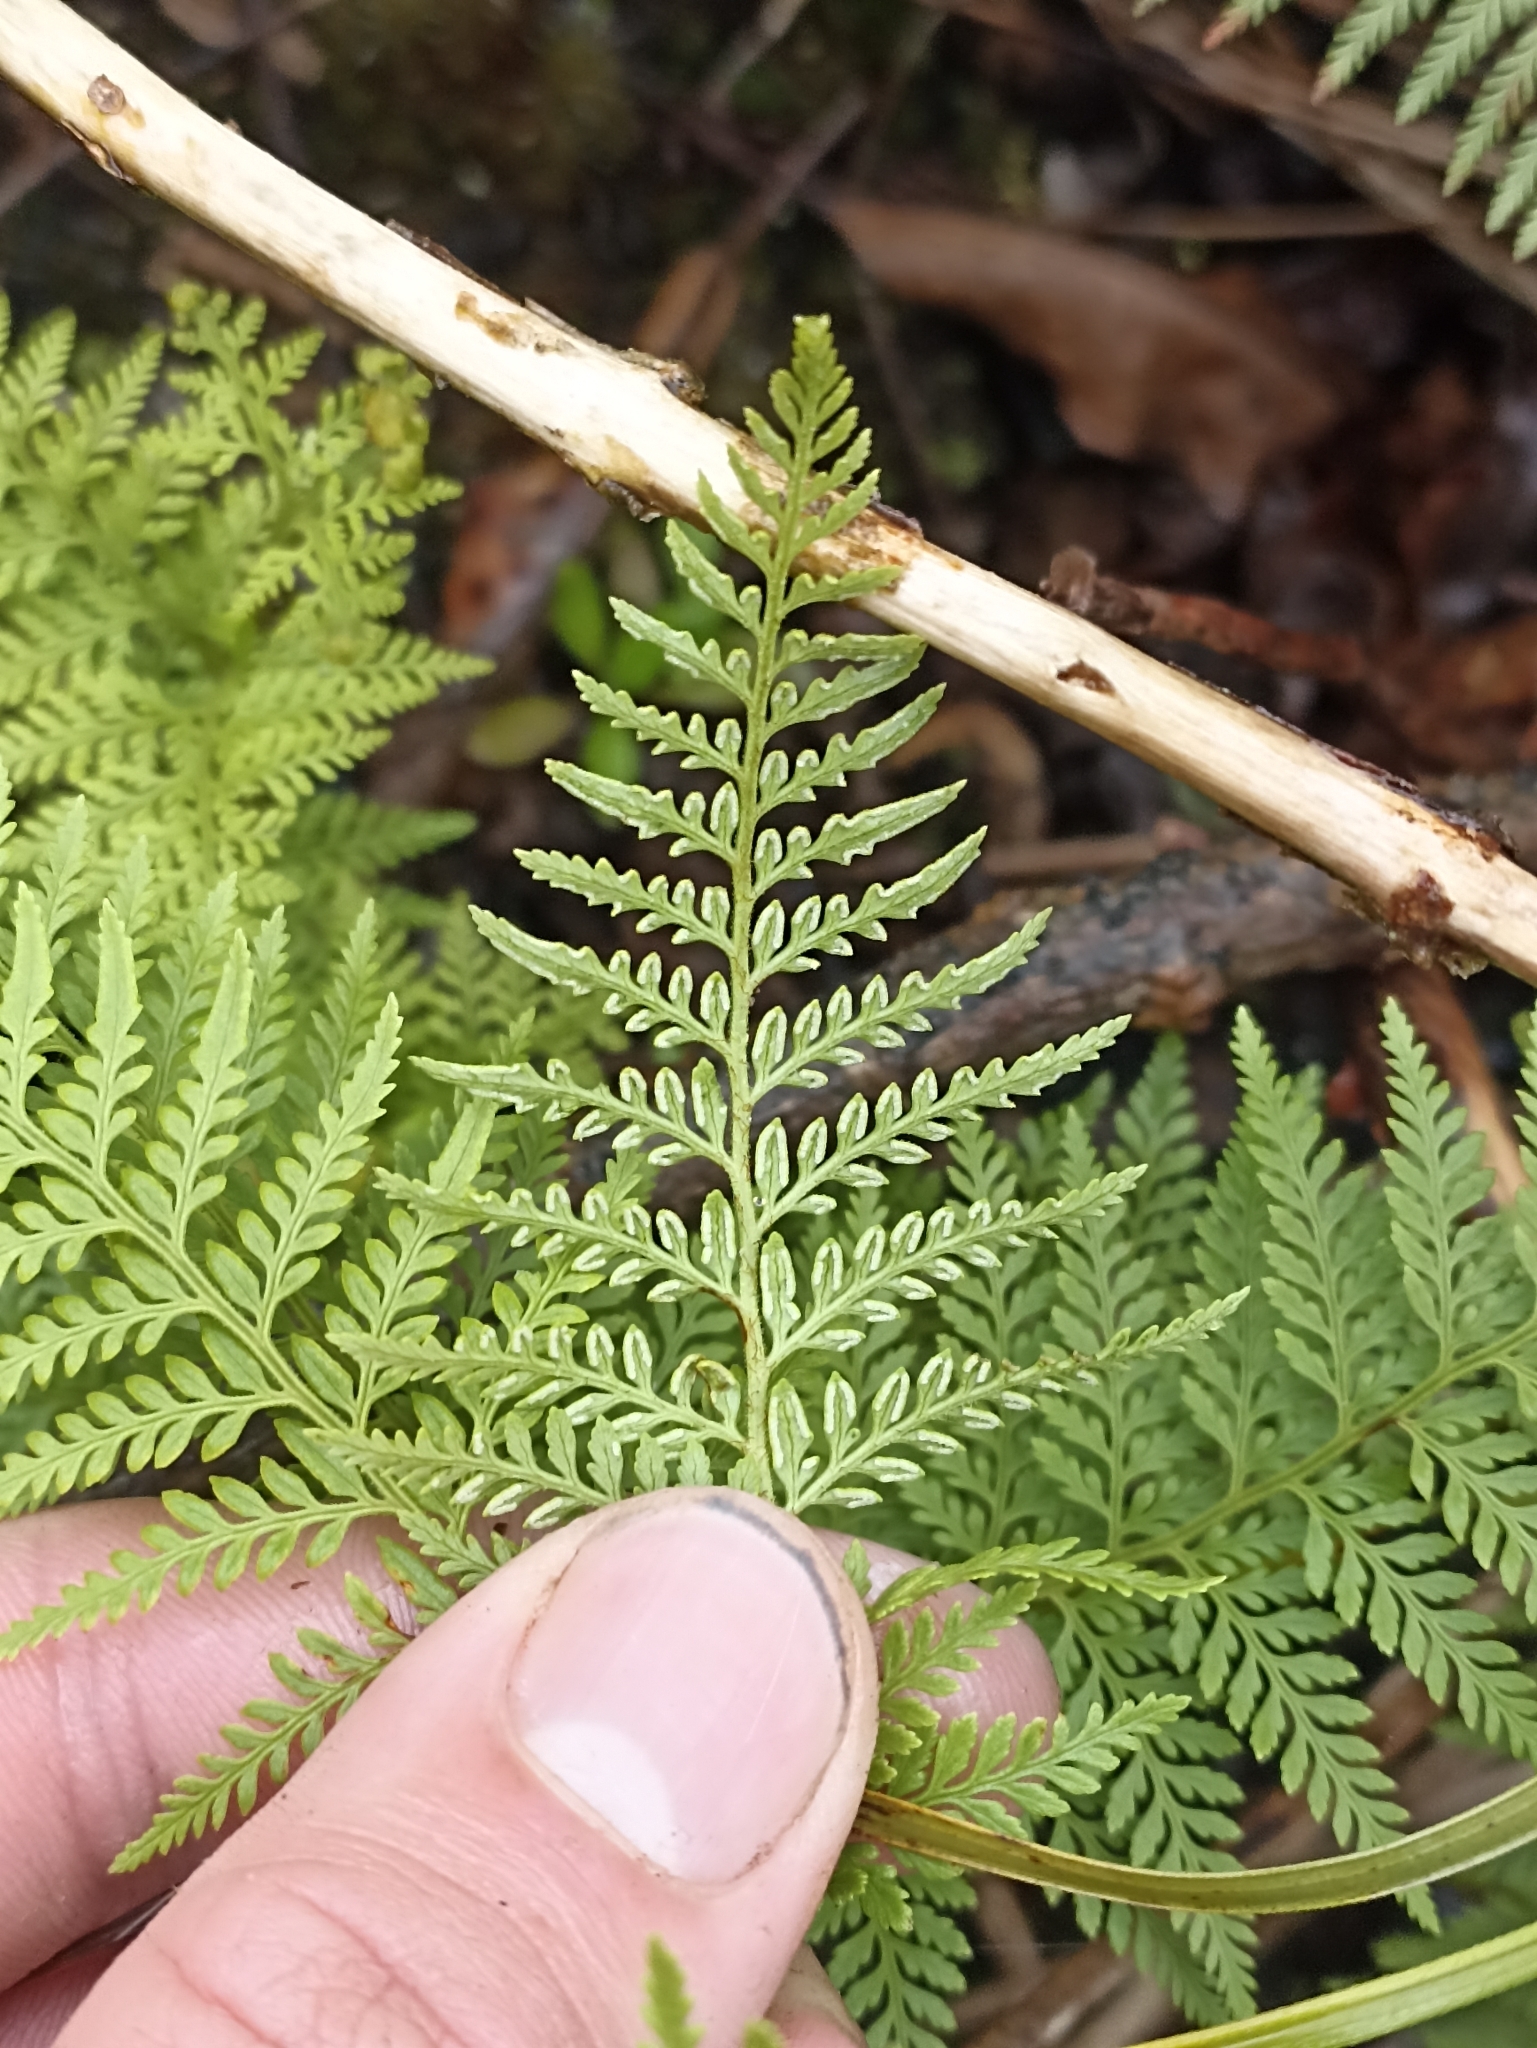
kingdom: Plantae
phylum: Tracheophyta
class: Polypodiopsida
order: Polypodiales
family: Dennstaedtiaceae
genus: Paesia
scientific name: Paesia scaberula
